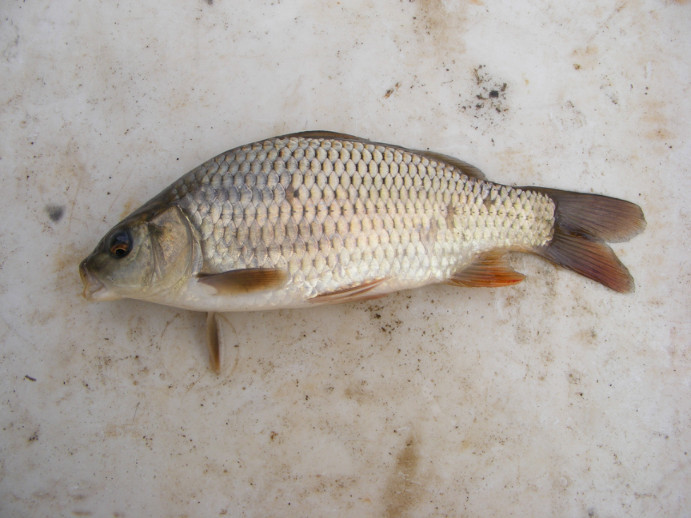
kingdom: Animalia
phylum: Chordata
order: Cypriniformes
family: Cyprinidae
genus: Cyprinus
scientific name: Cyprinus carpio
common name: Common carp
